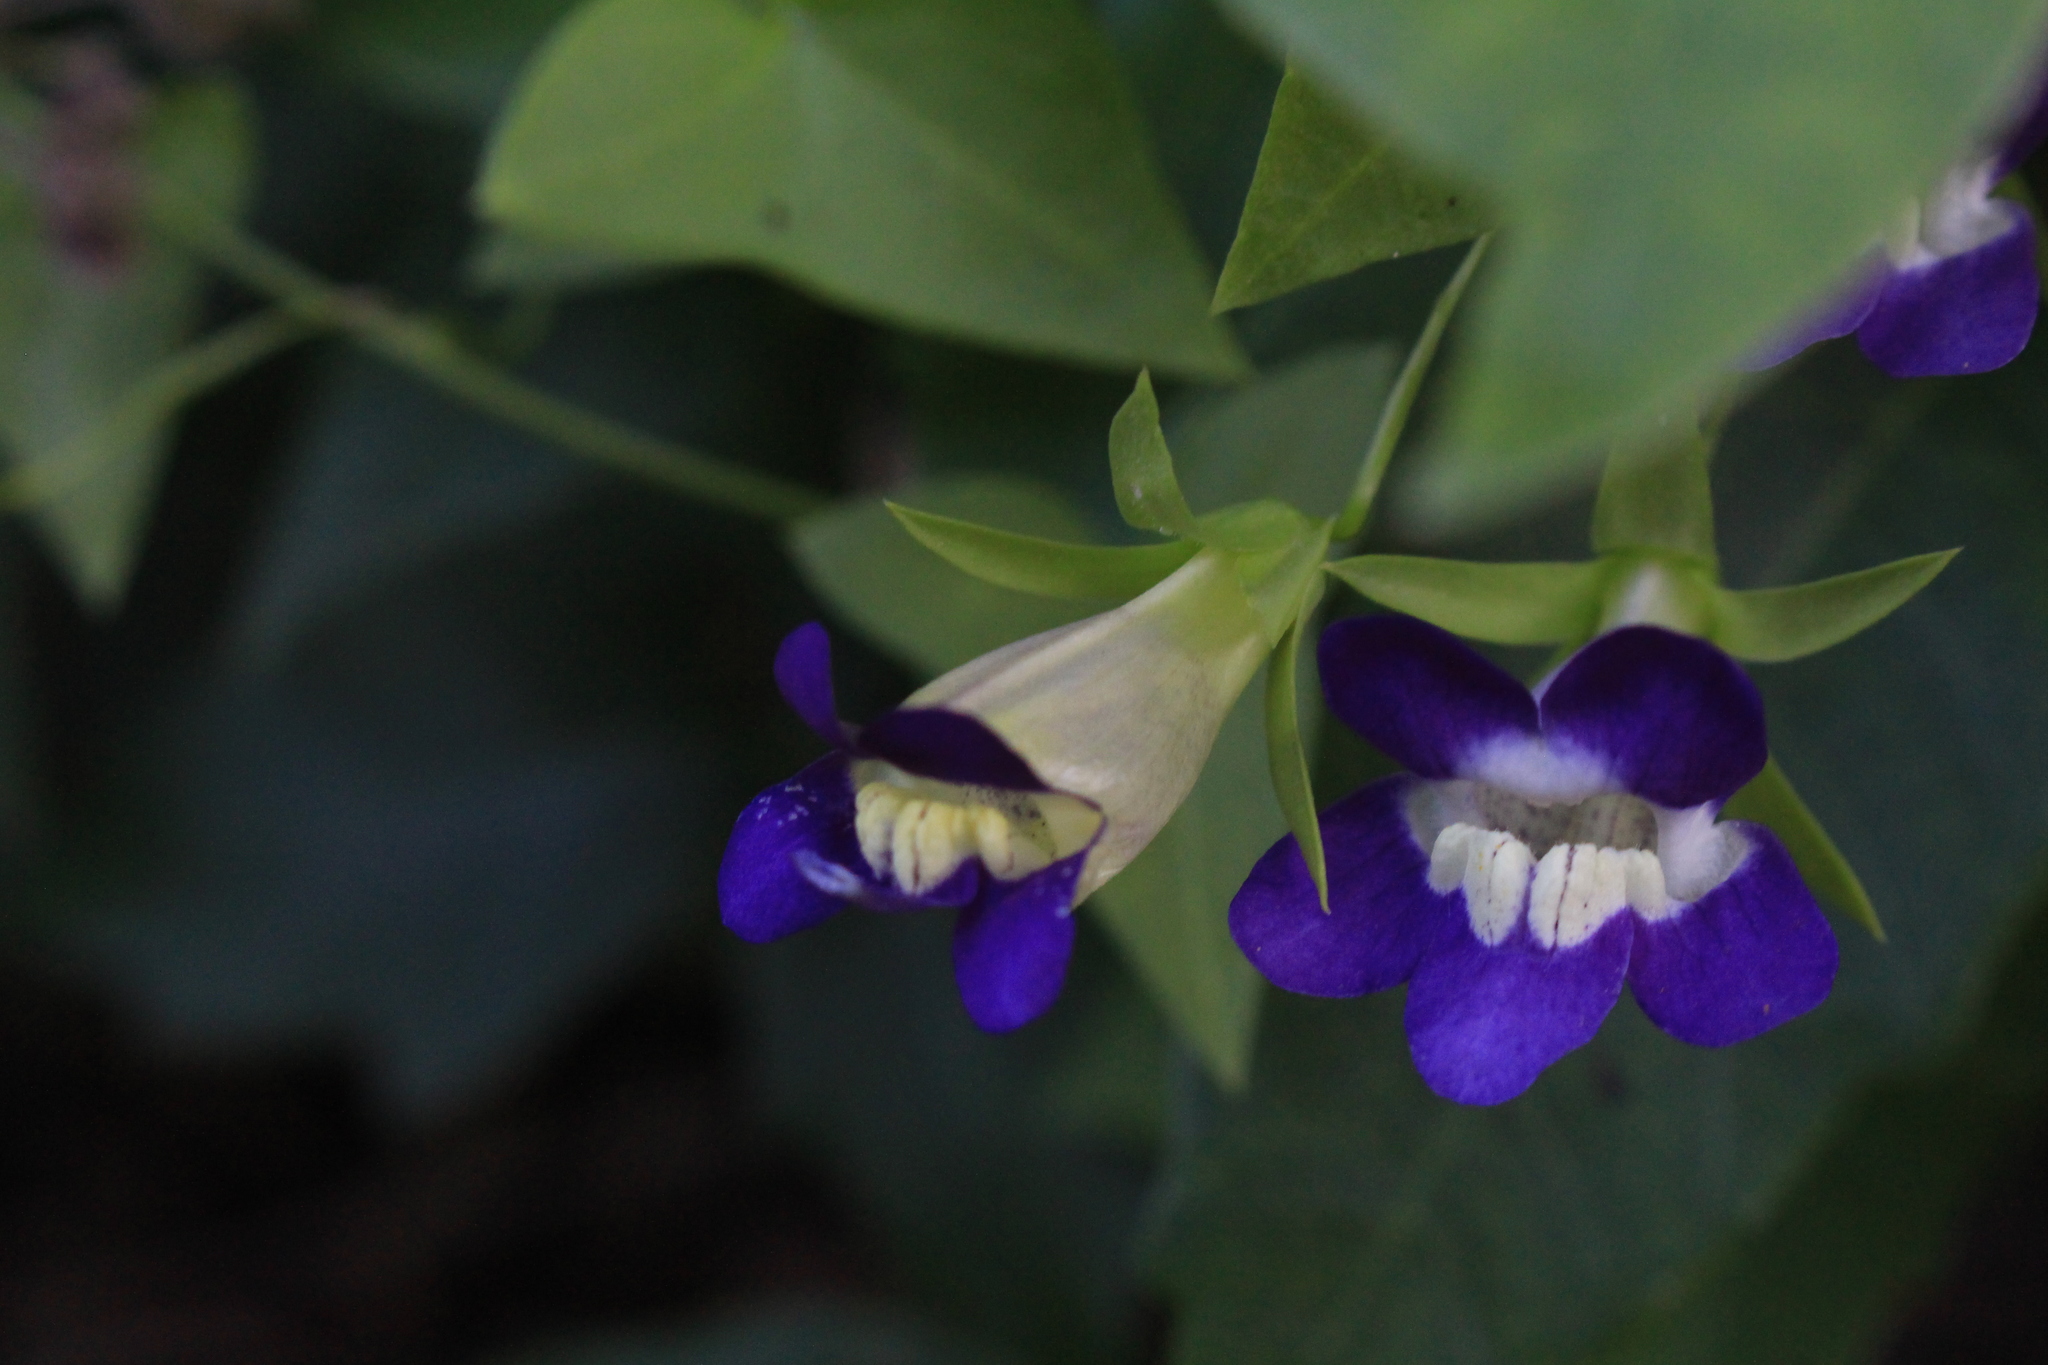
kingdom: Plantae
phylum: Tracheophyta
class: Magnoliopsida
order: Lamiales
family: Plantaginaceae
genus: Maurandella
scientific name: Maurandella antirrhiniflora
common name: Violet twining-snapdragon
